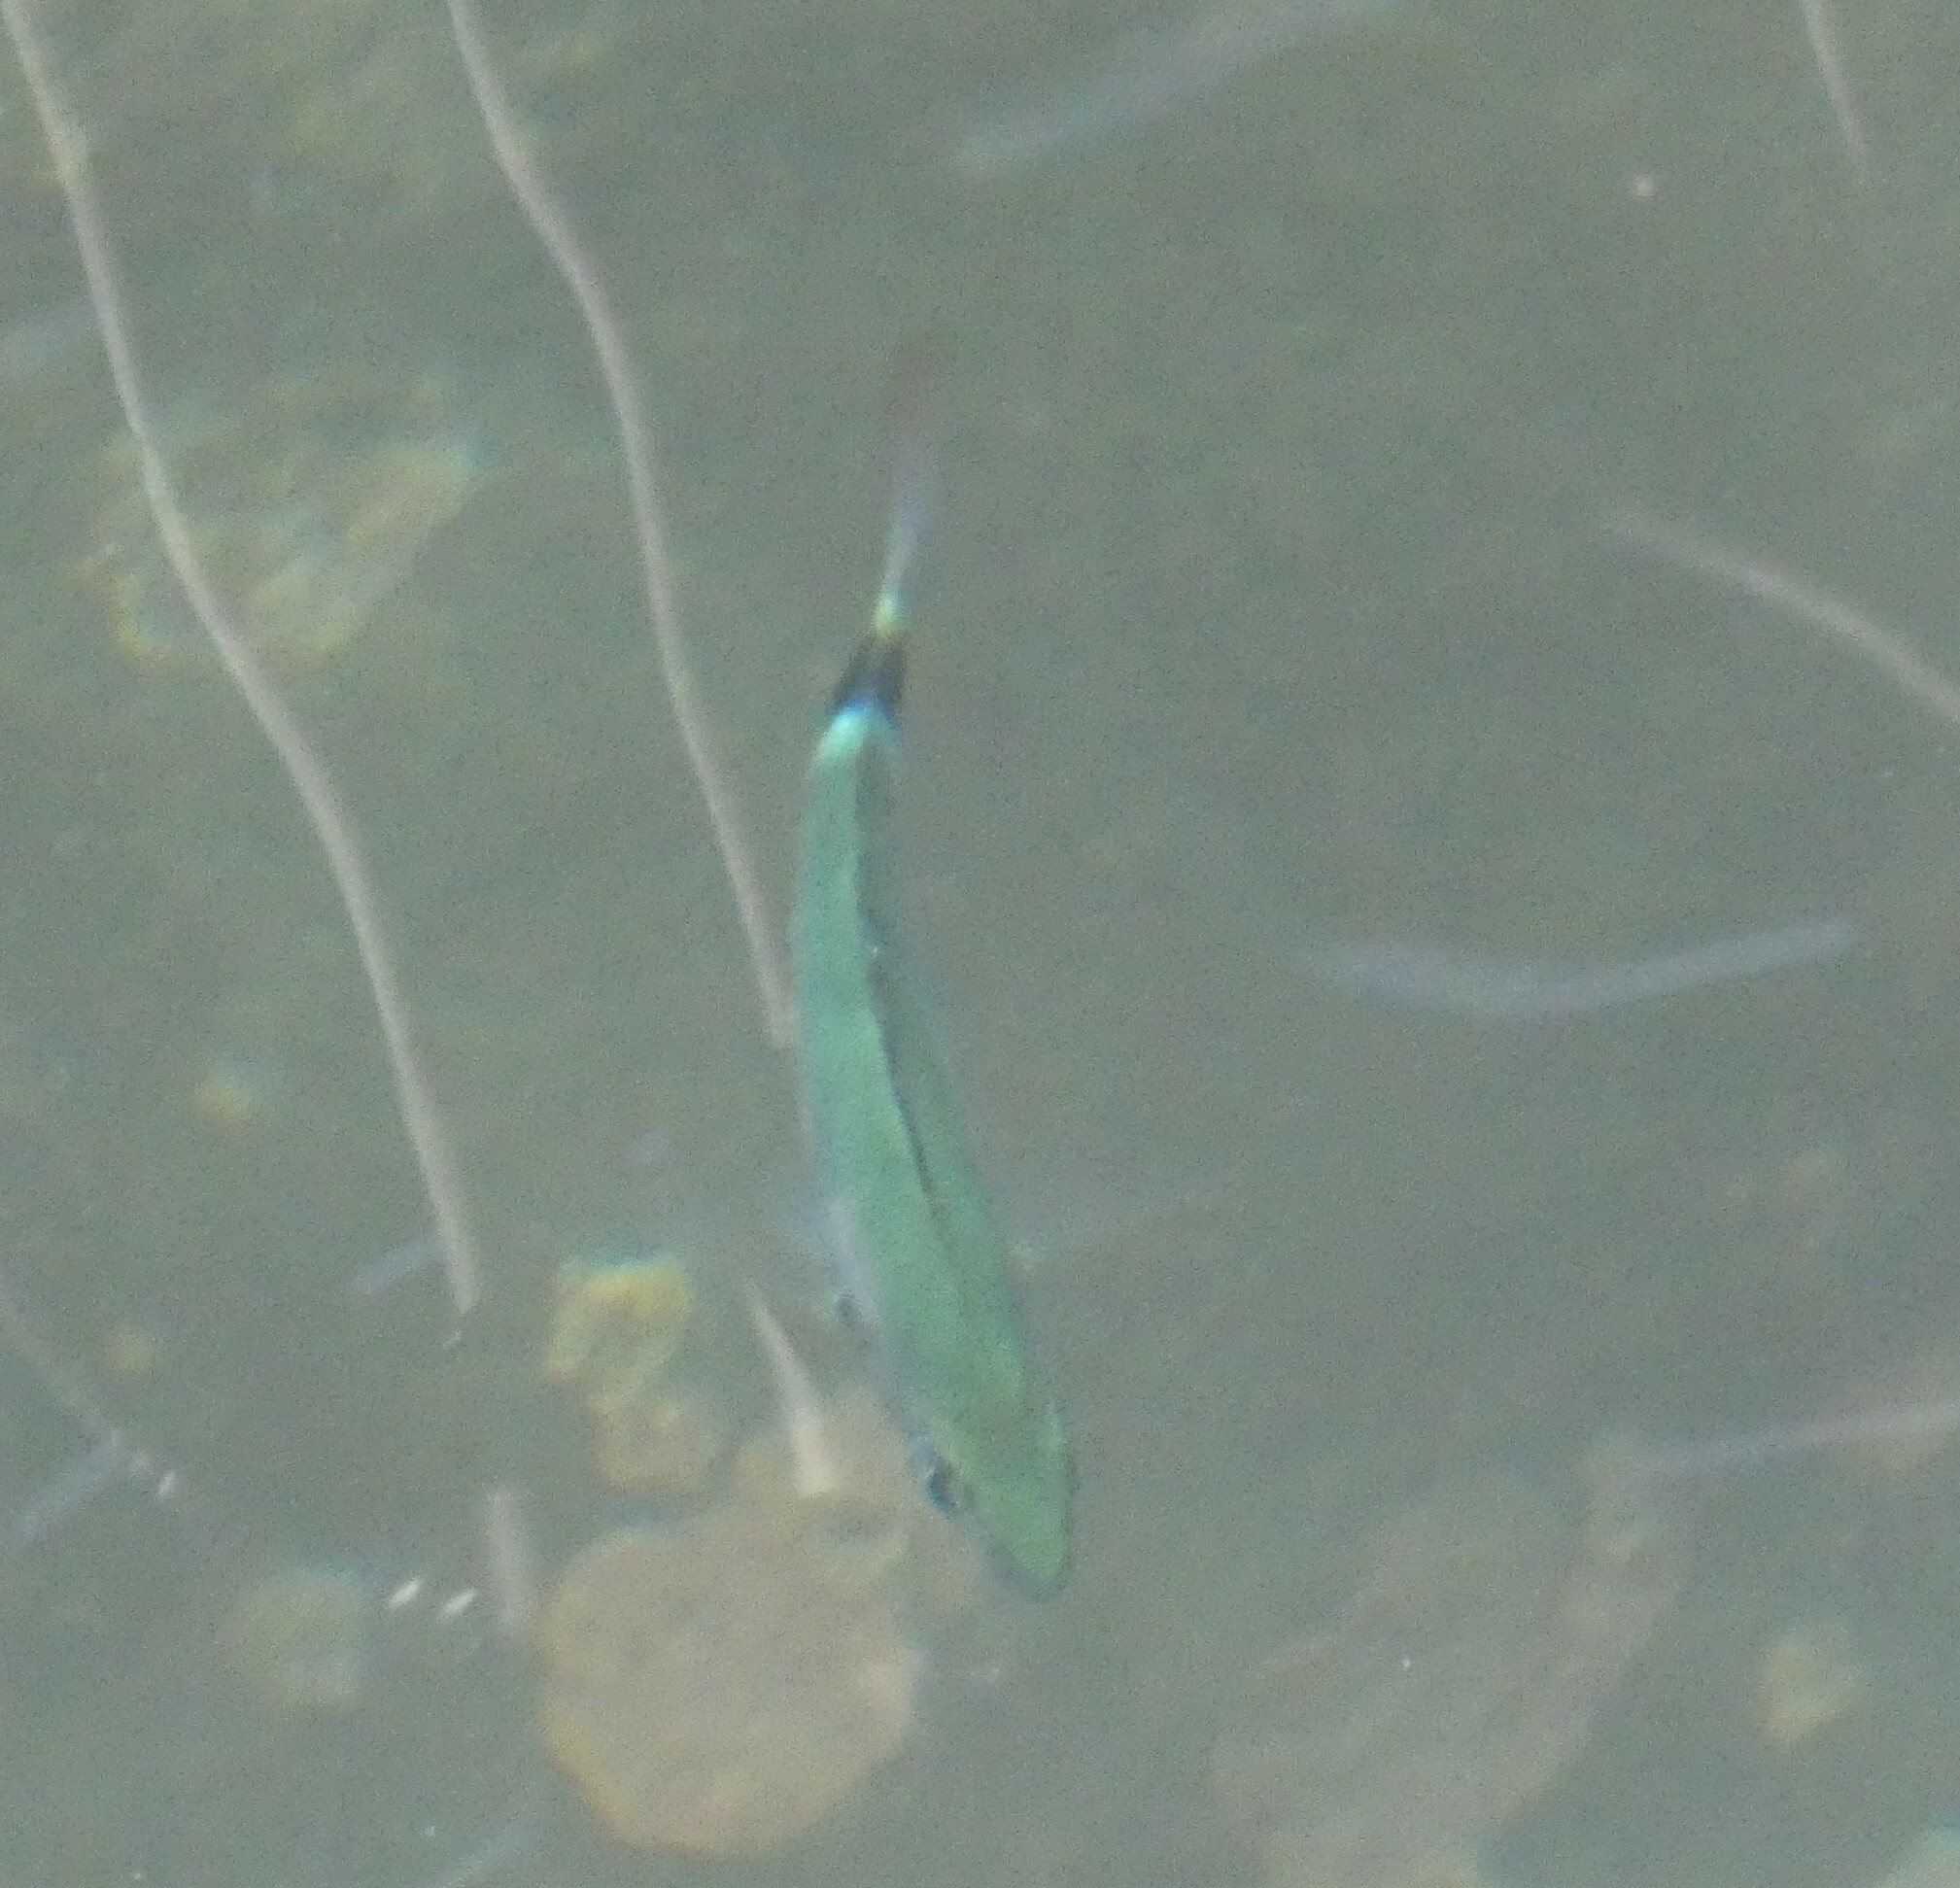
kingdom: Animalia
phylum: Chordata
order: Perciformes
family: Sparidae
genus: Oblada
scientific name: Oblada melanura
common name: Saddled seabream
